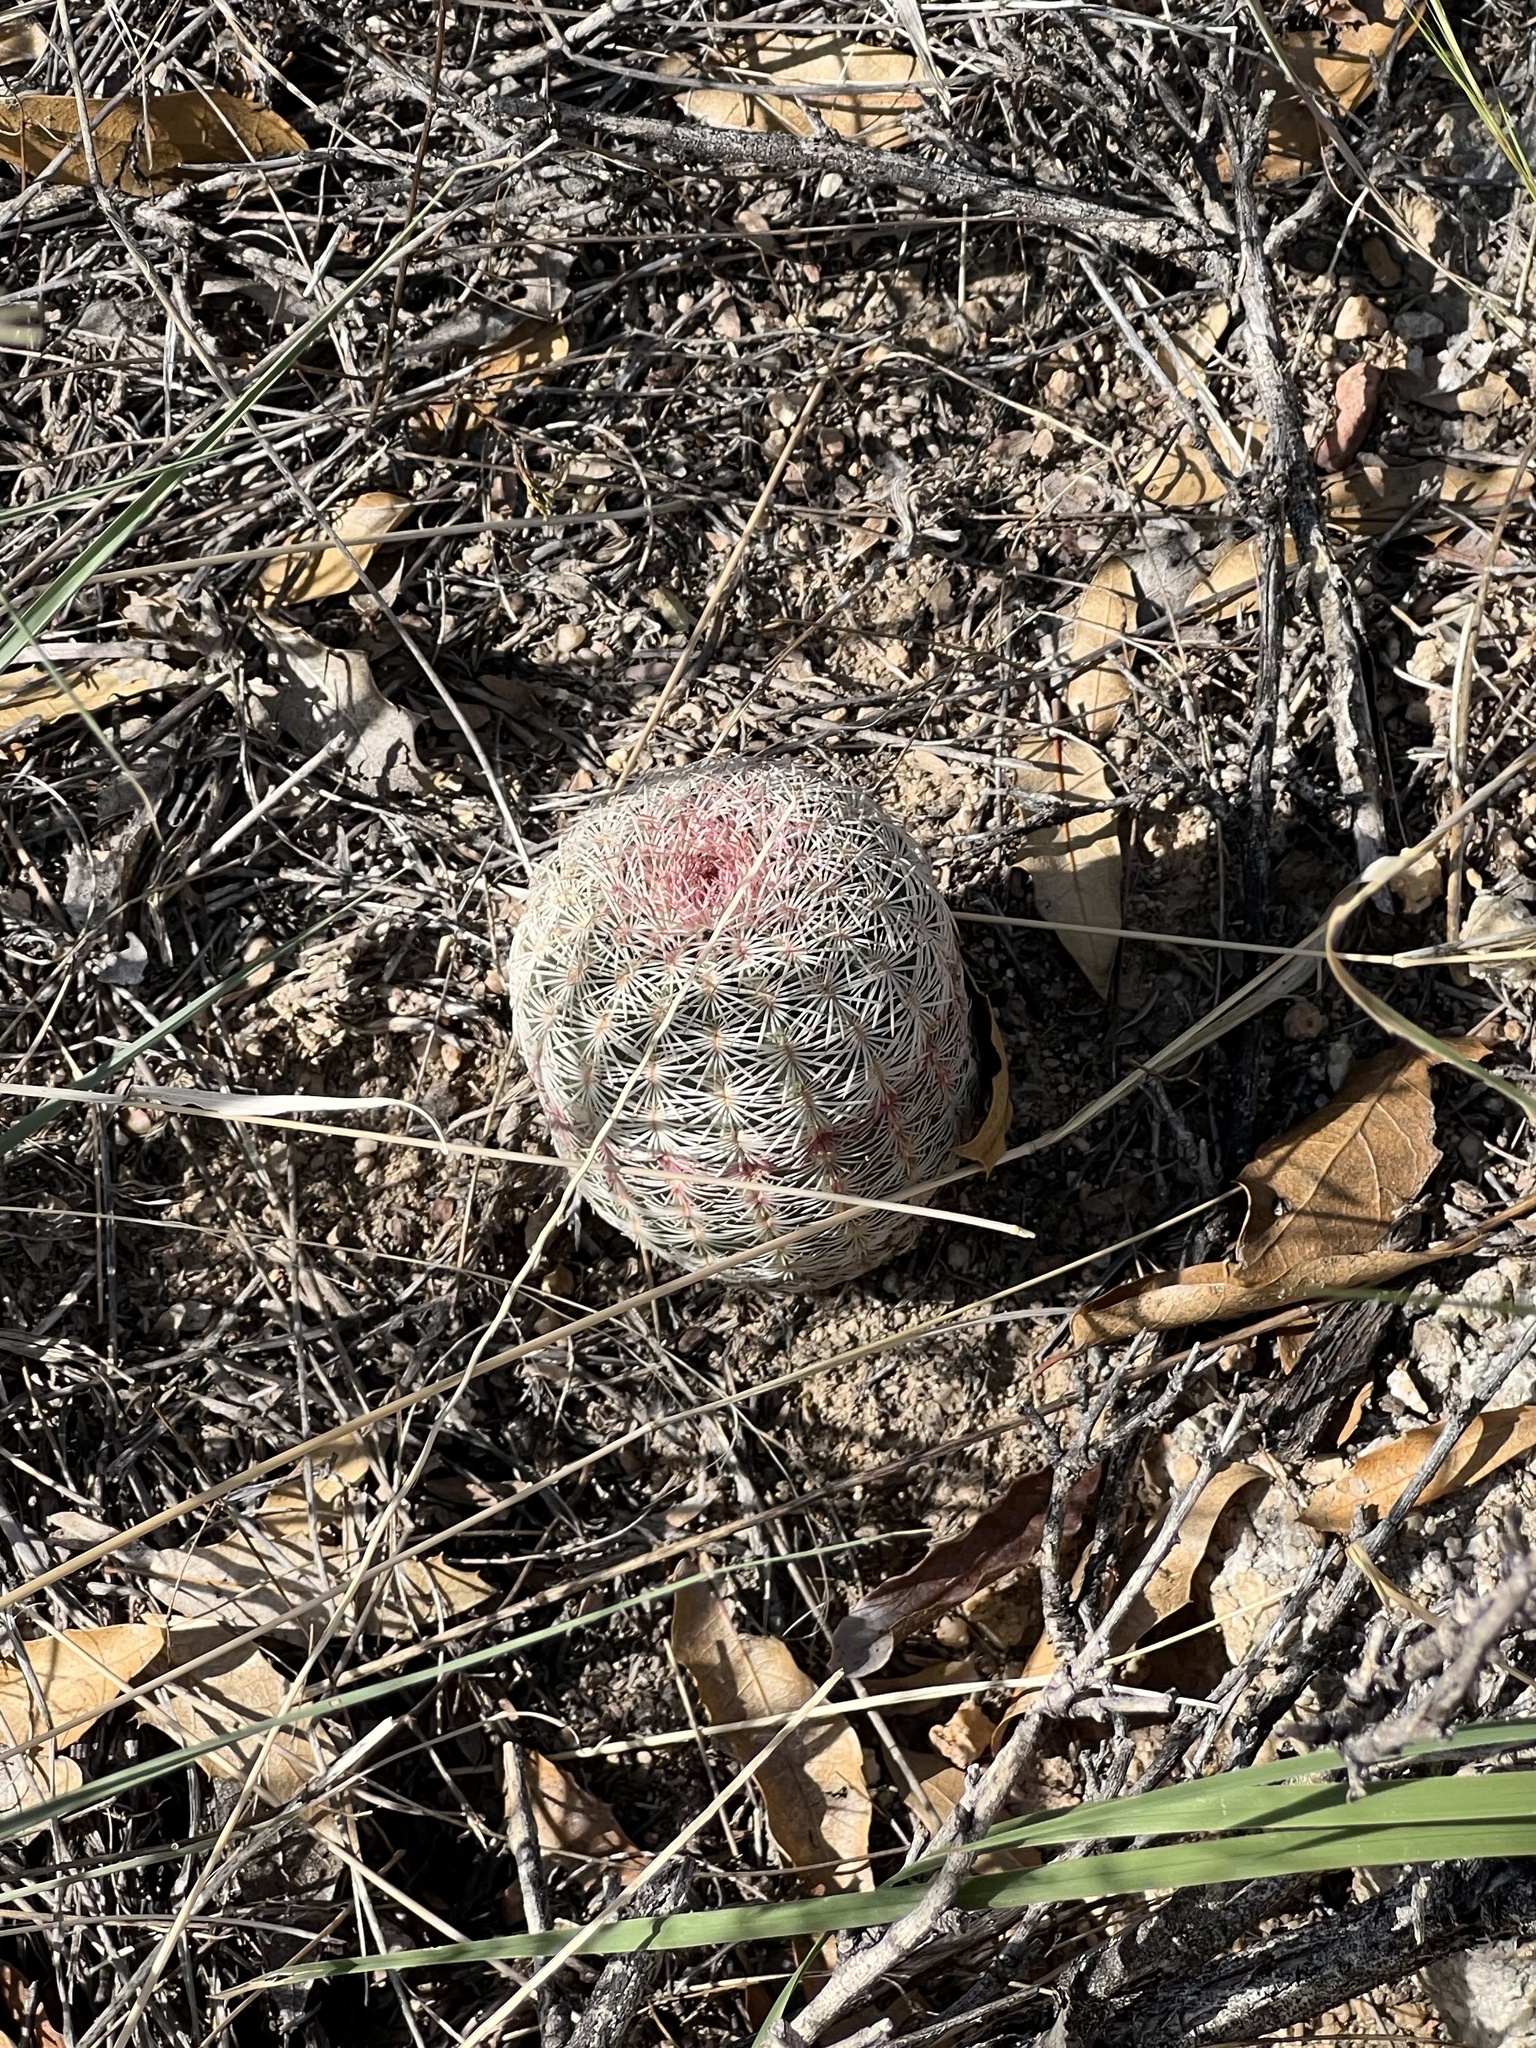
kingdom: Plantae
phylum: Tracheophyta
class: Magnoliopsida
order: Caryophyllales
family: Cactaceae
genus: Echinocereus
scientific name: Echinocereus rigidissimus
